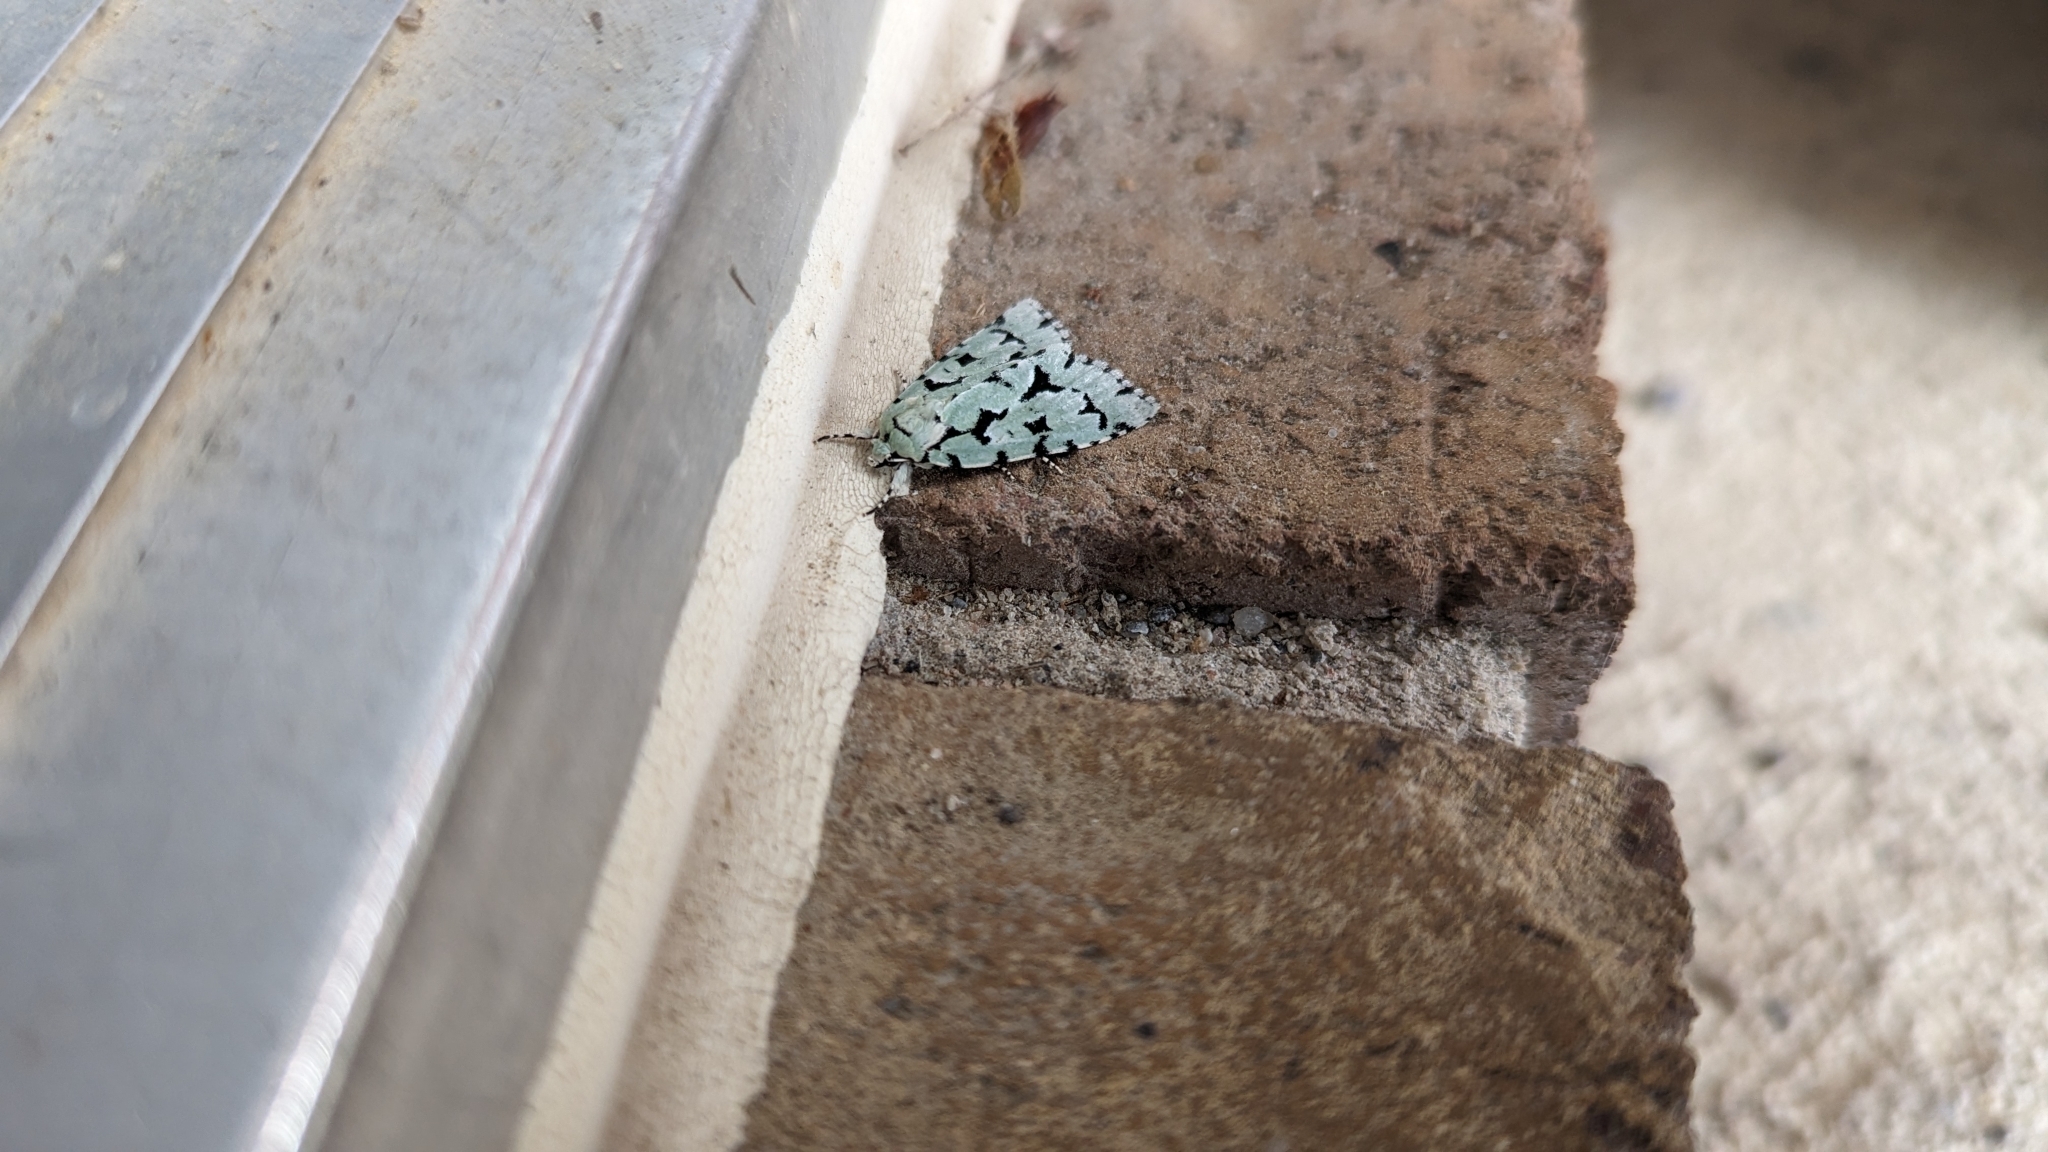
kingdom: Animalia
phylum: Arthropoda
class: Insecta
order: Lepidoptera
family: Noctuidae
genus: Acronicta
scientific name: Acronicta fallax
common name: Green marvel
